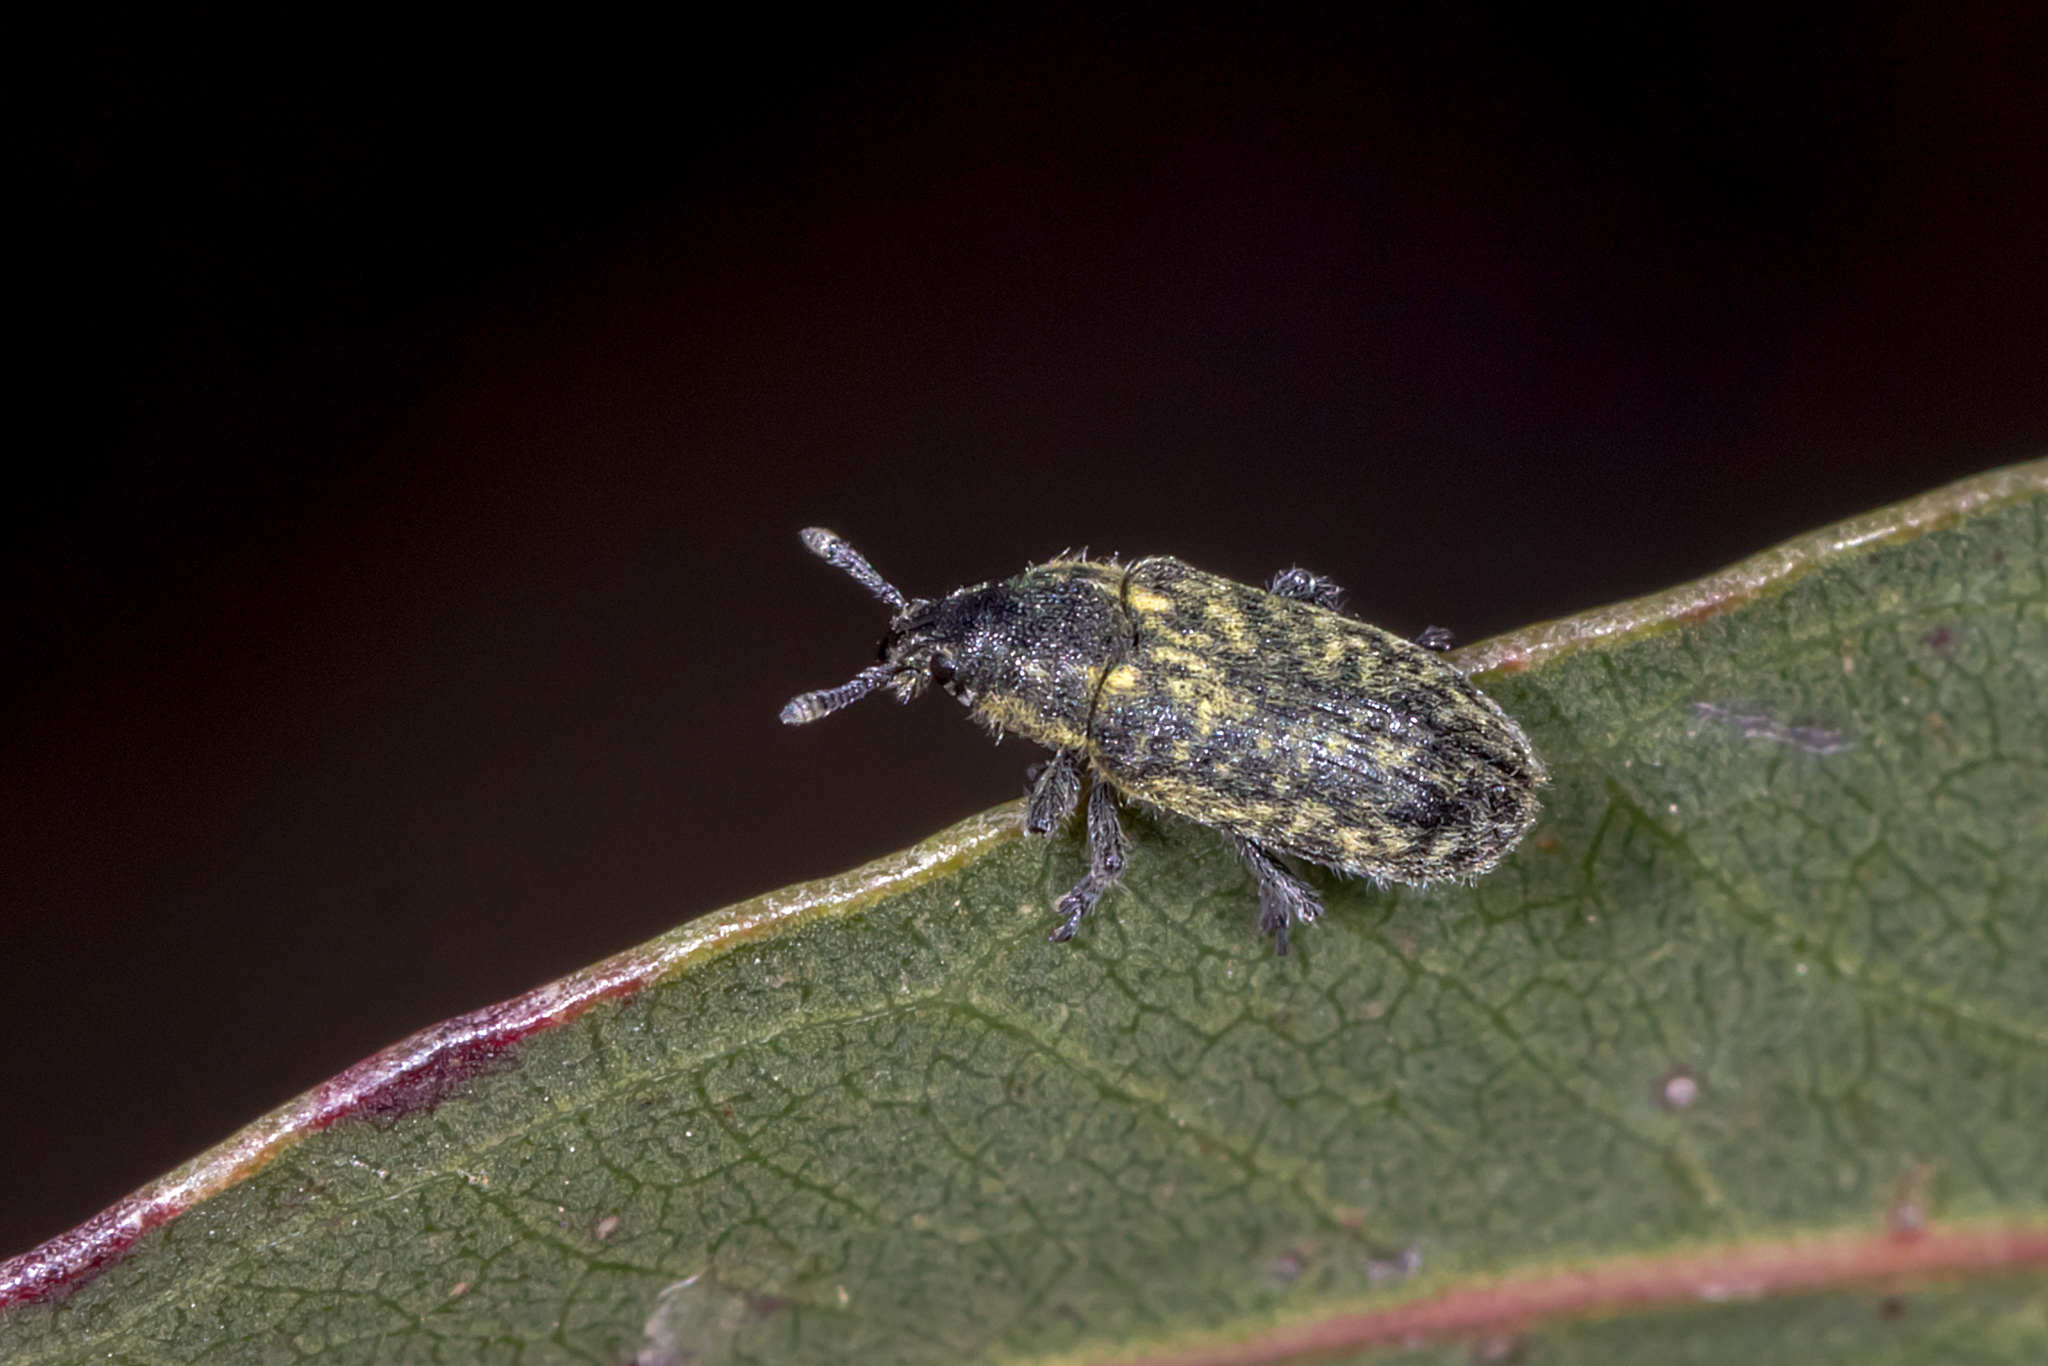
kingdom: Animalia
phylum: Arthropoda
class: Insecta
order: Coleoptera
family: Curculionidae
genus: Rhinocyllus
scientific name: Rhinocyllus conicus
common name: Weevil
